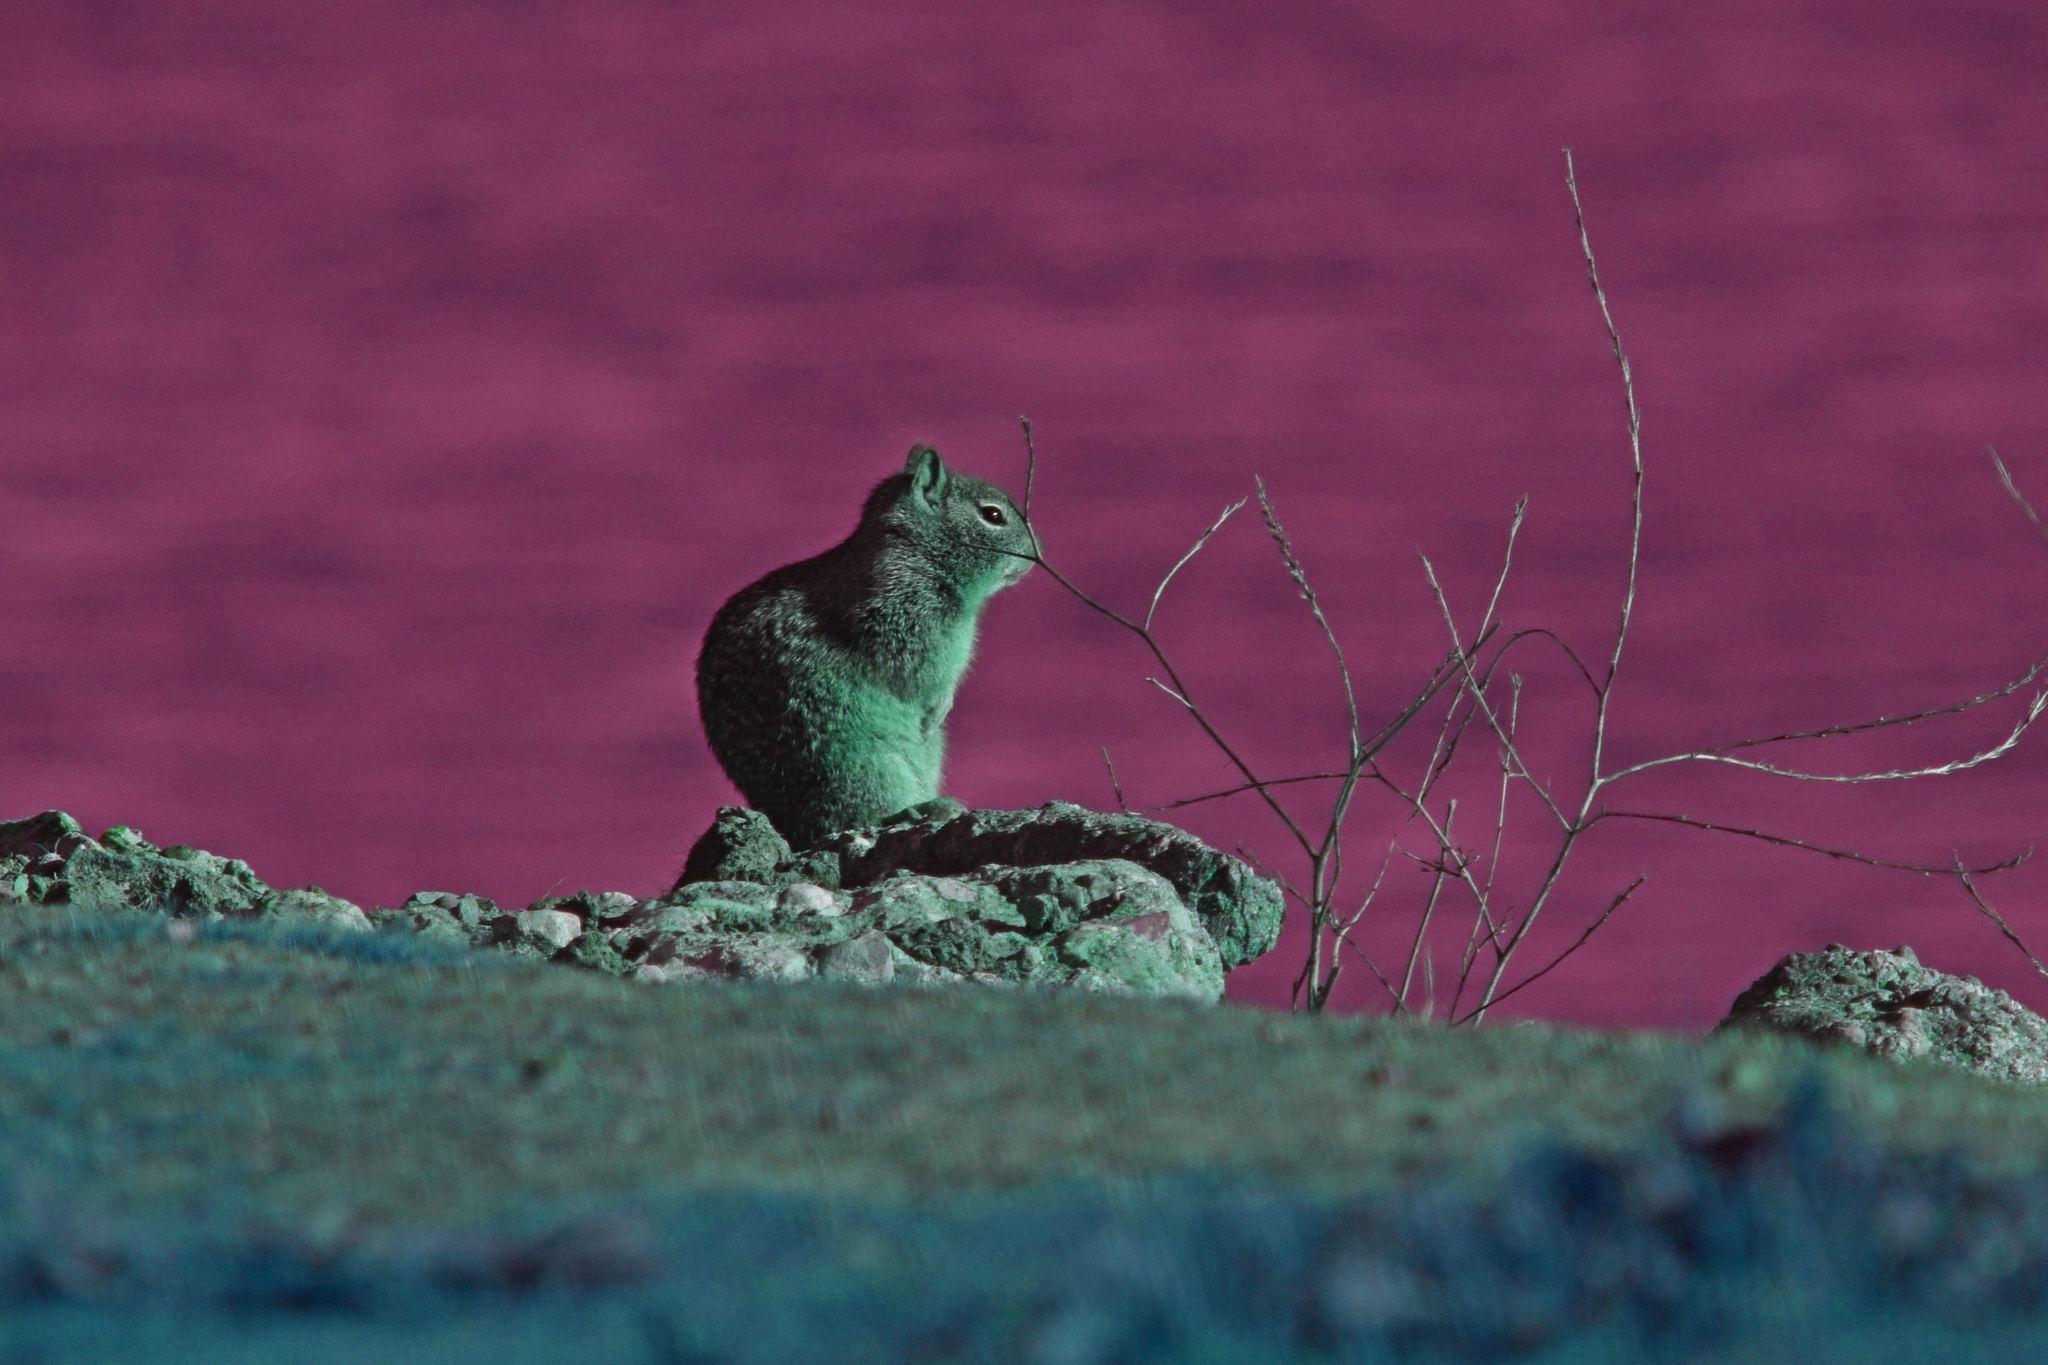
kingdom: Animalia
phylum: Chordata
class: Mammalia
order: Rodentia
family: Sciuridae
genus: Otospermophilus
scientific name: Otospermophilus beecheyi
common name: California ground squirrel
